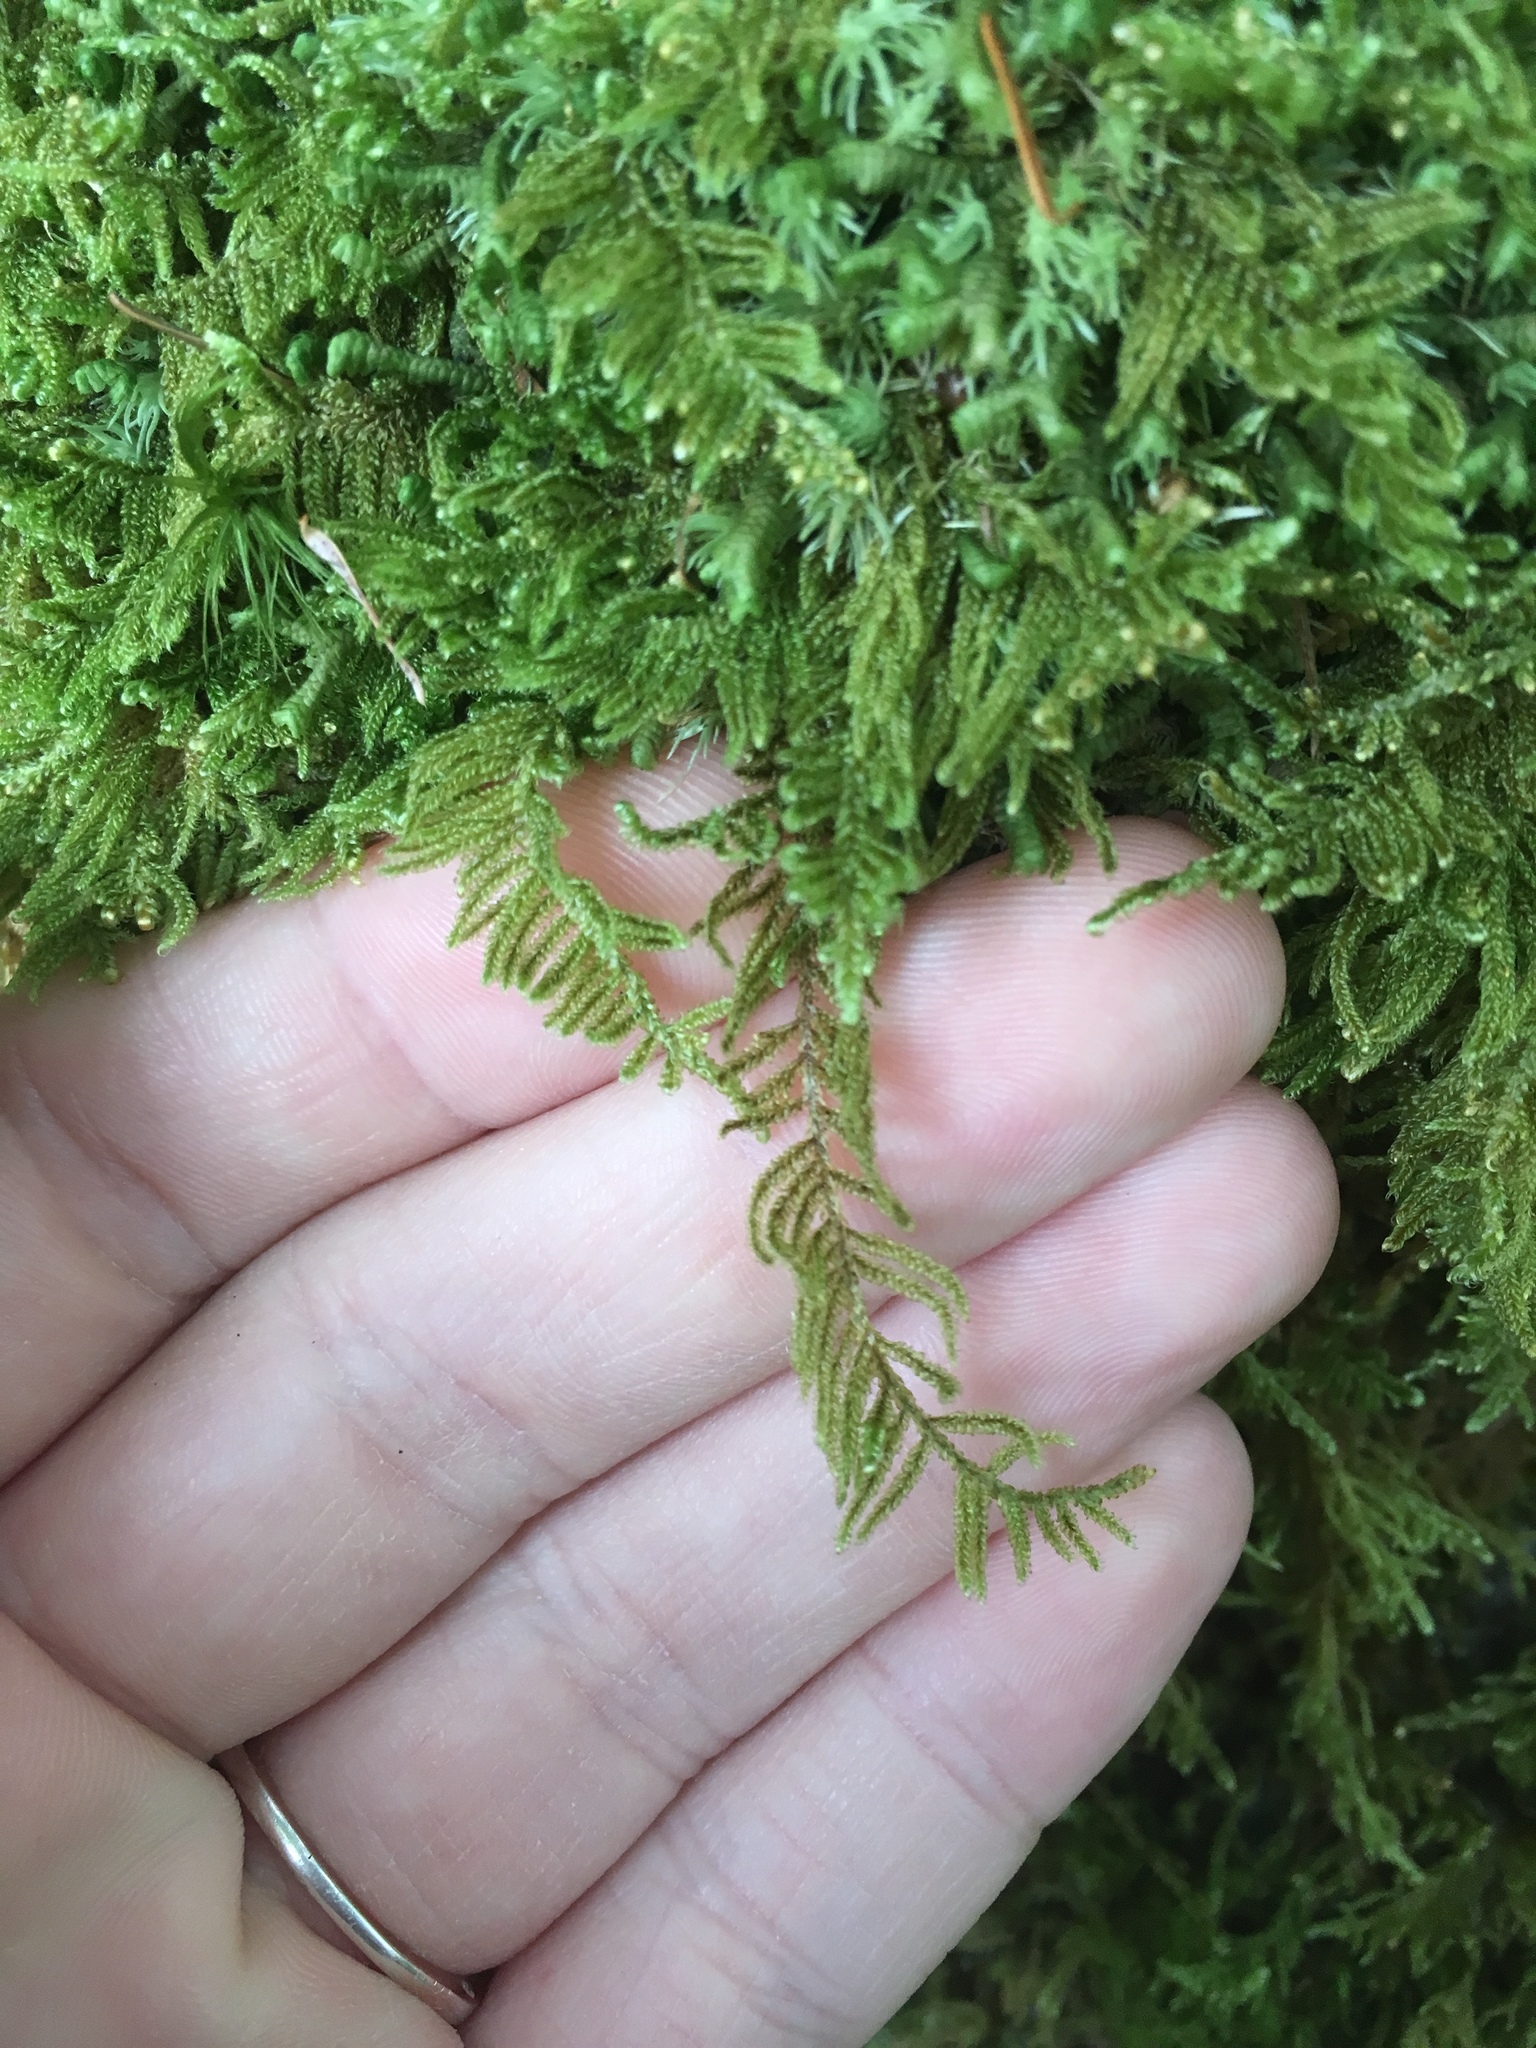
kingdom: Plantae
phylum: Bryophyta
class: Bryopsida
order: Hypnales
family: Callicladiaceae
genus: Callicladium
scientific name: Callicladium imponens
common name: Brocade moss
